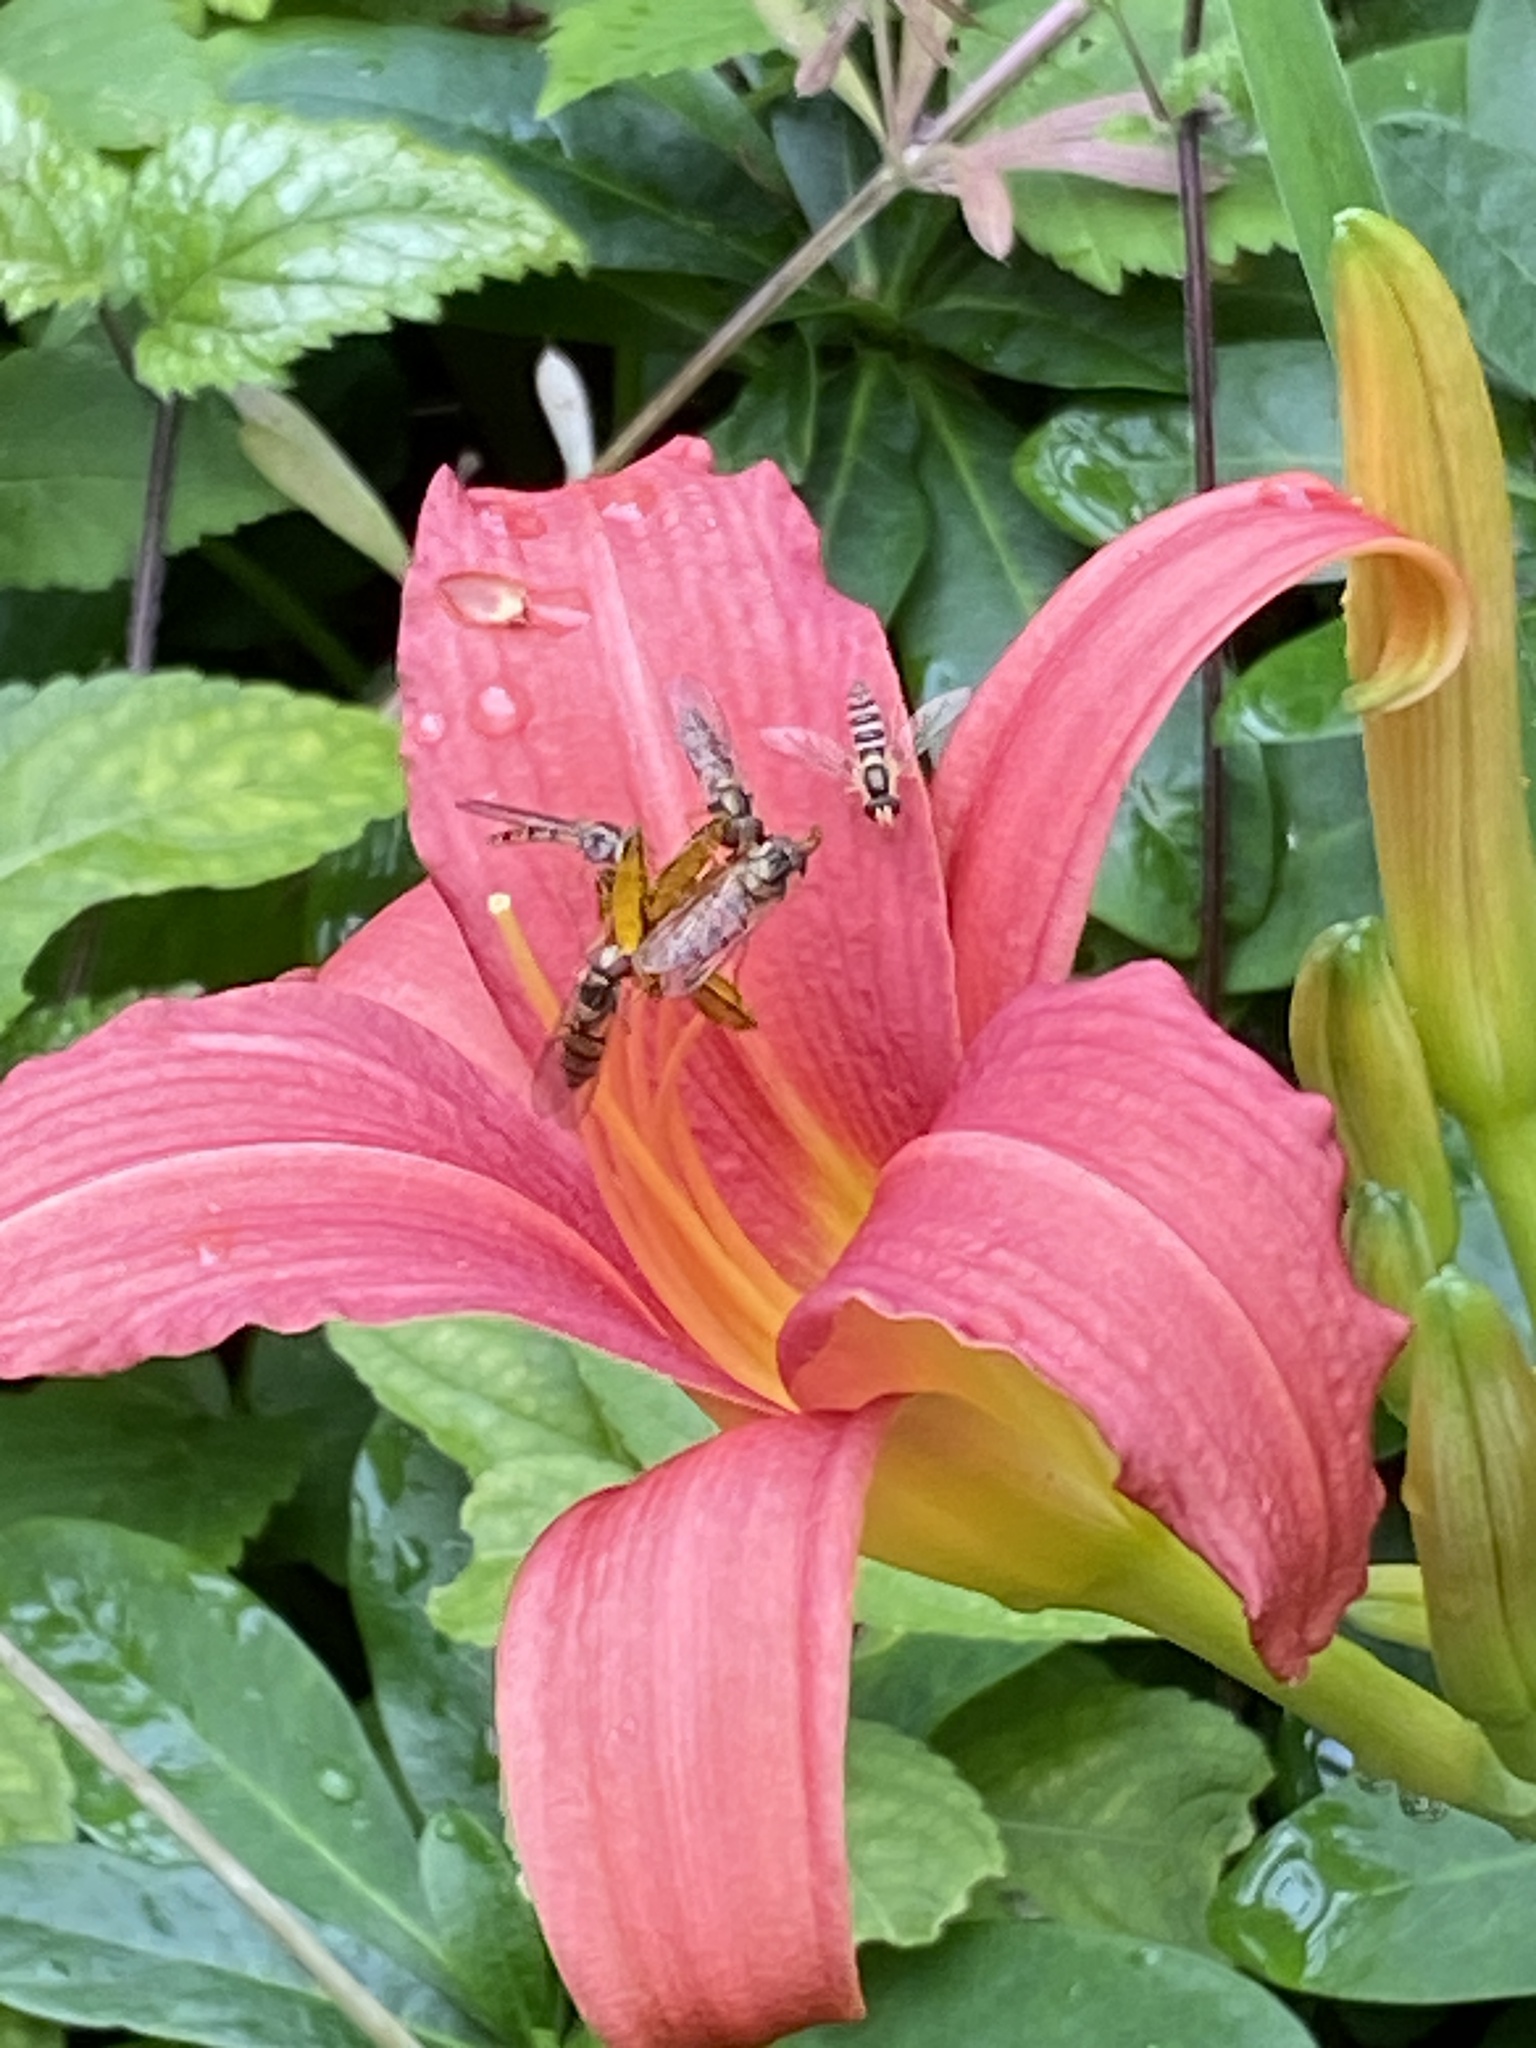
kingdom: Animalia
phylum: Arthropoda
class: Insecta
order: Diptera
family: Syrphidae
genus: Episyrphus
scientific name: Episyrphus balteatus
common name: Marmalade hoverfly
